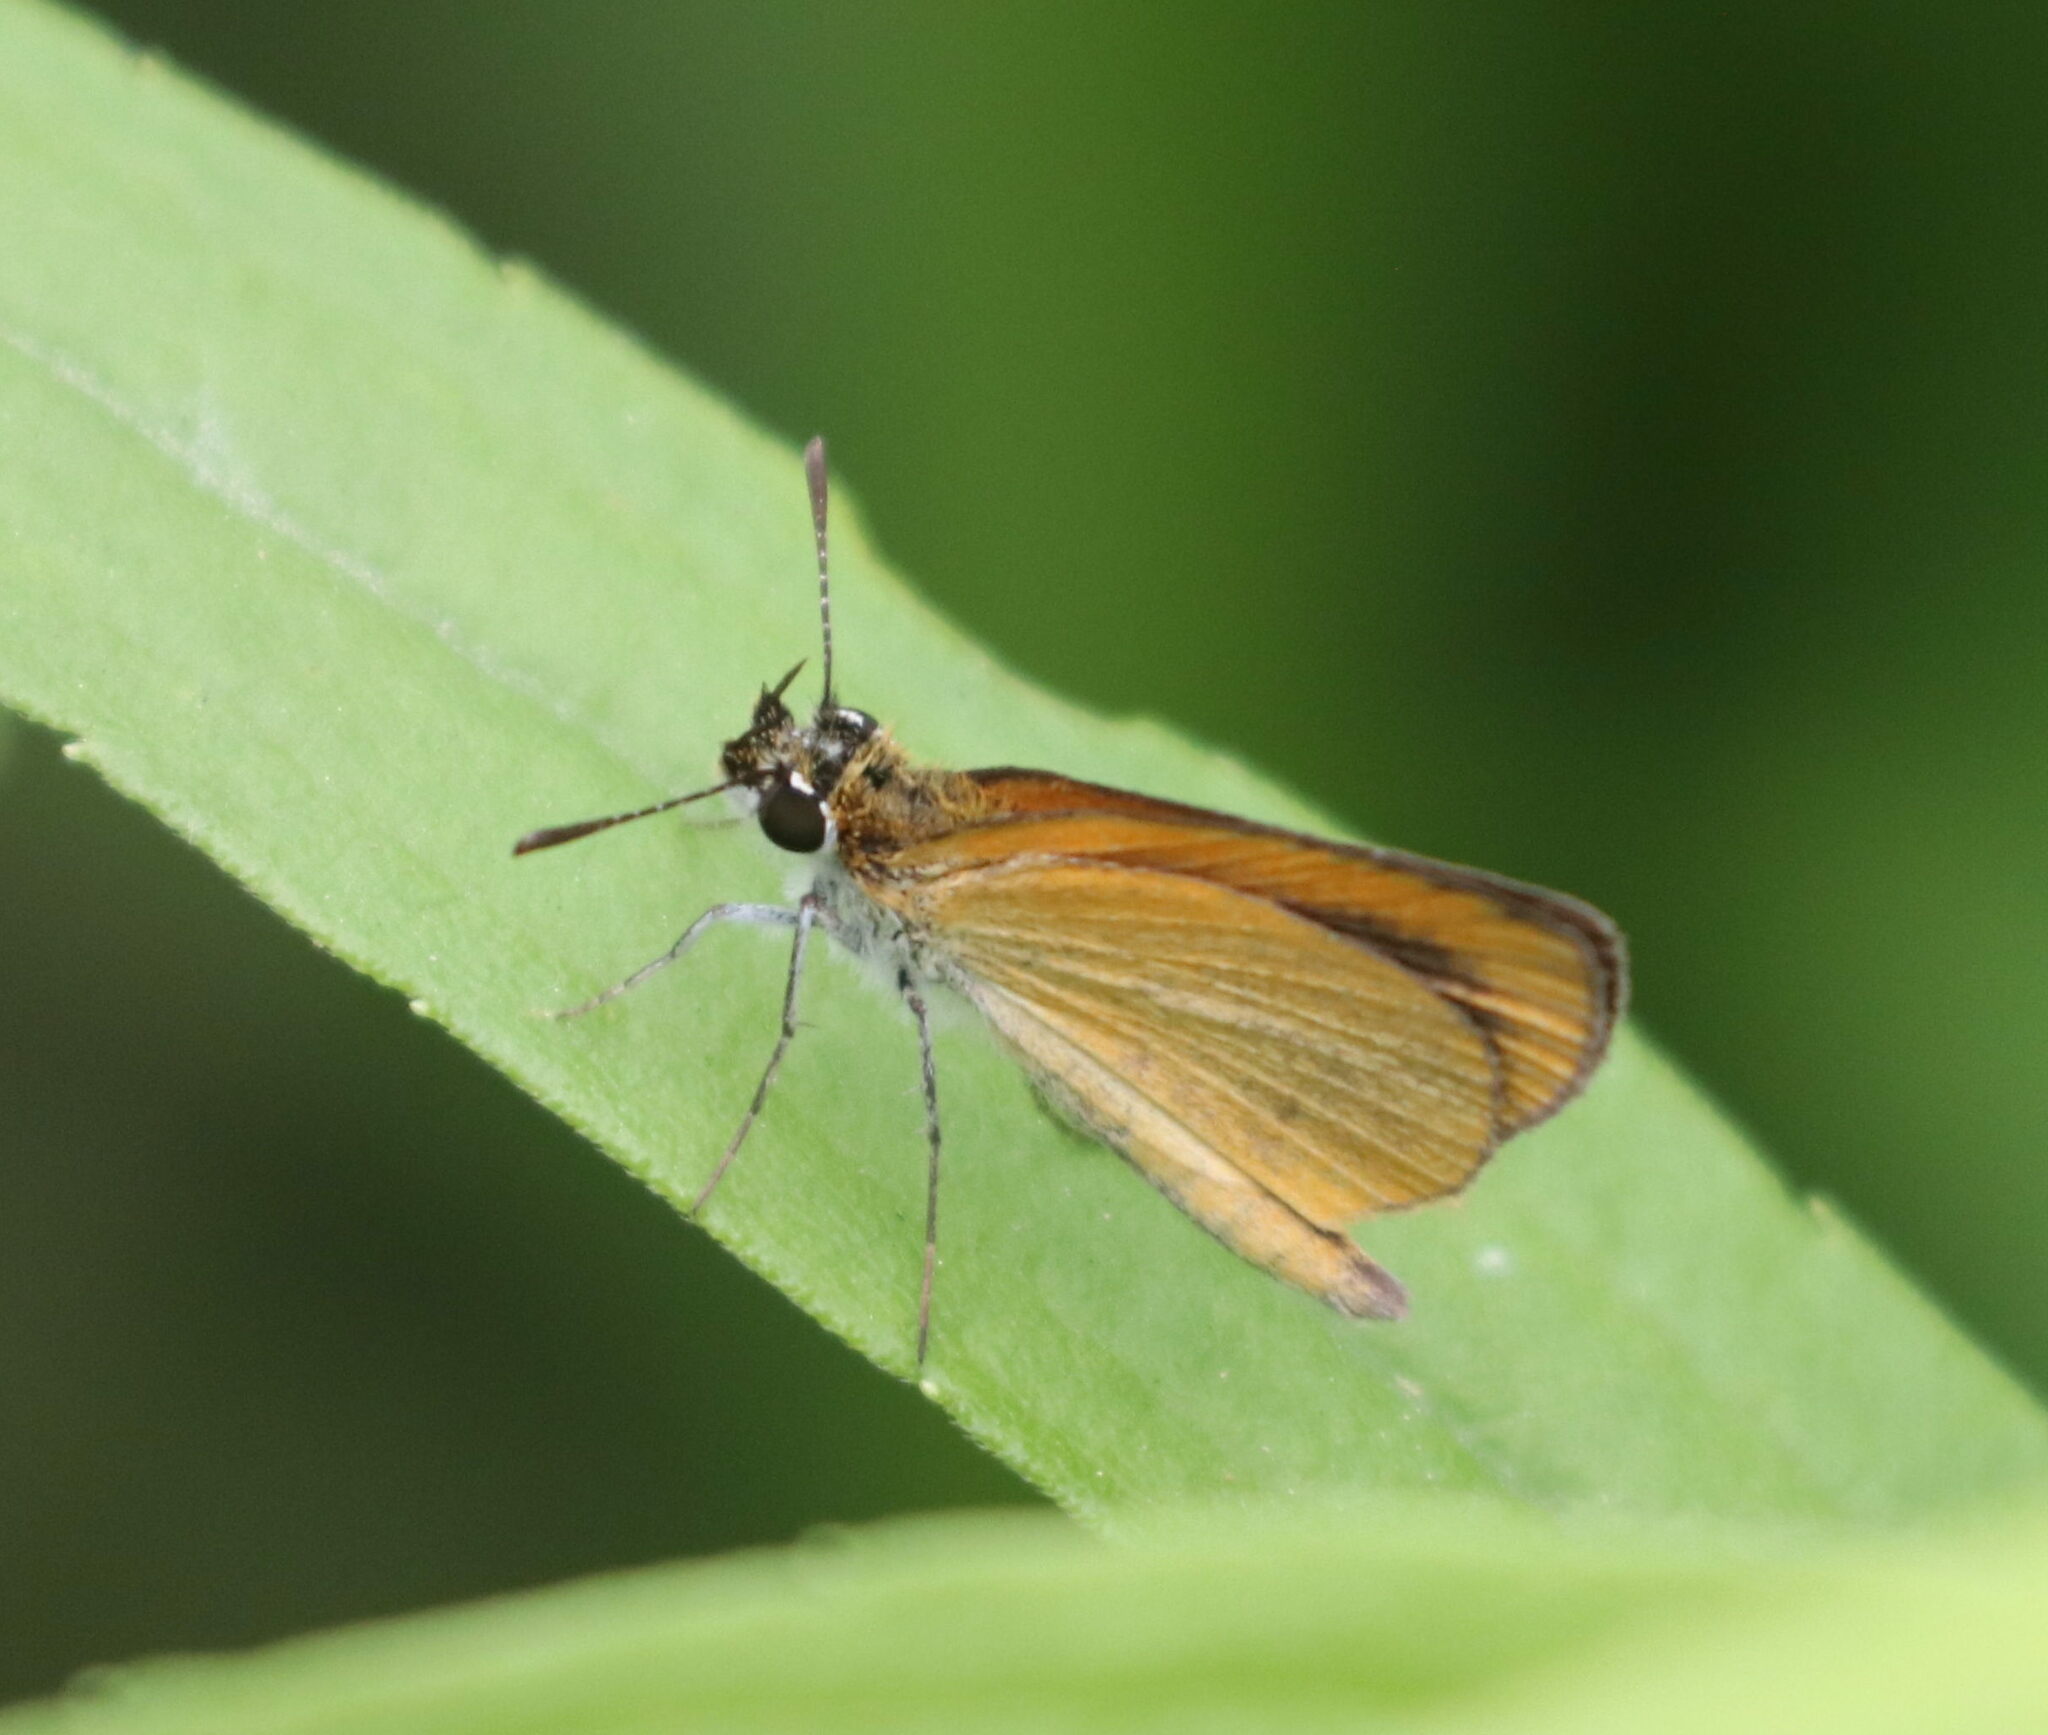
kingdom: Animalia
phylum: Arthropoda
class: Insecta
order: Lepidoptera
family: Hesperiidae
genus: Ancyloxypha
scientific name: Ancyloxypha numitor
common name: Least skipper
